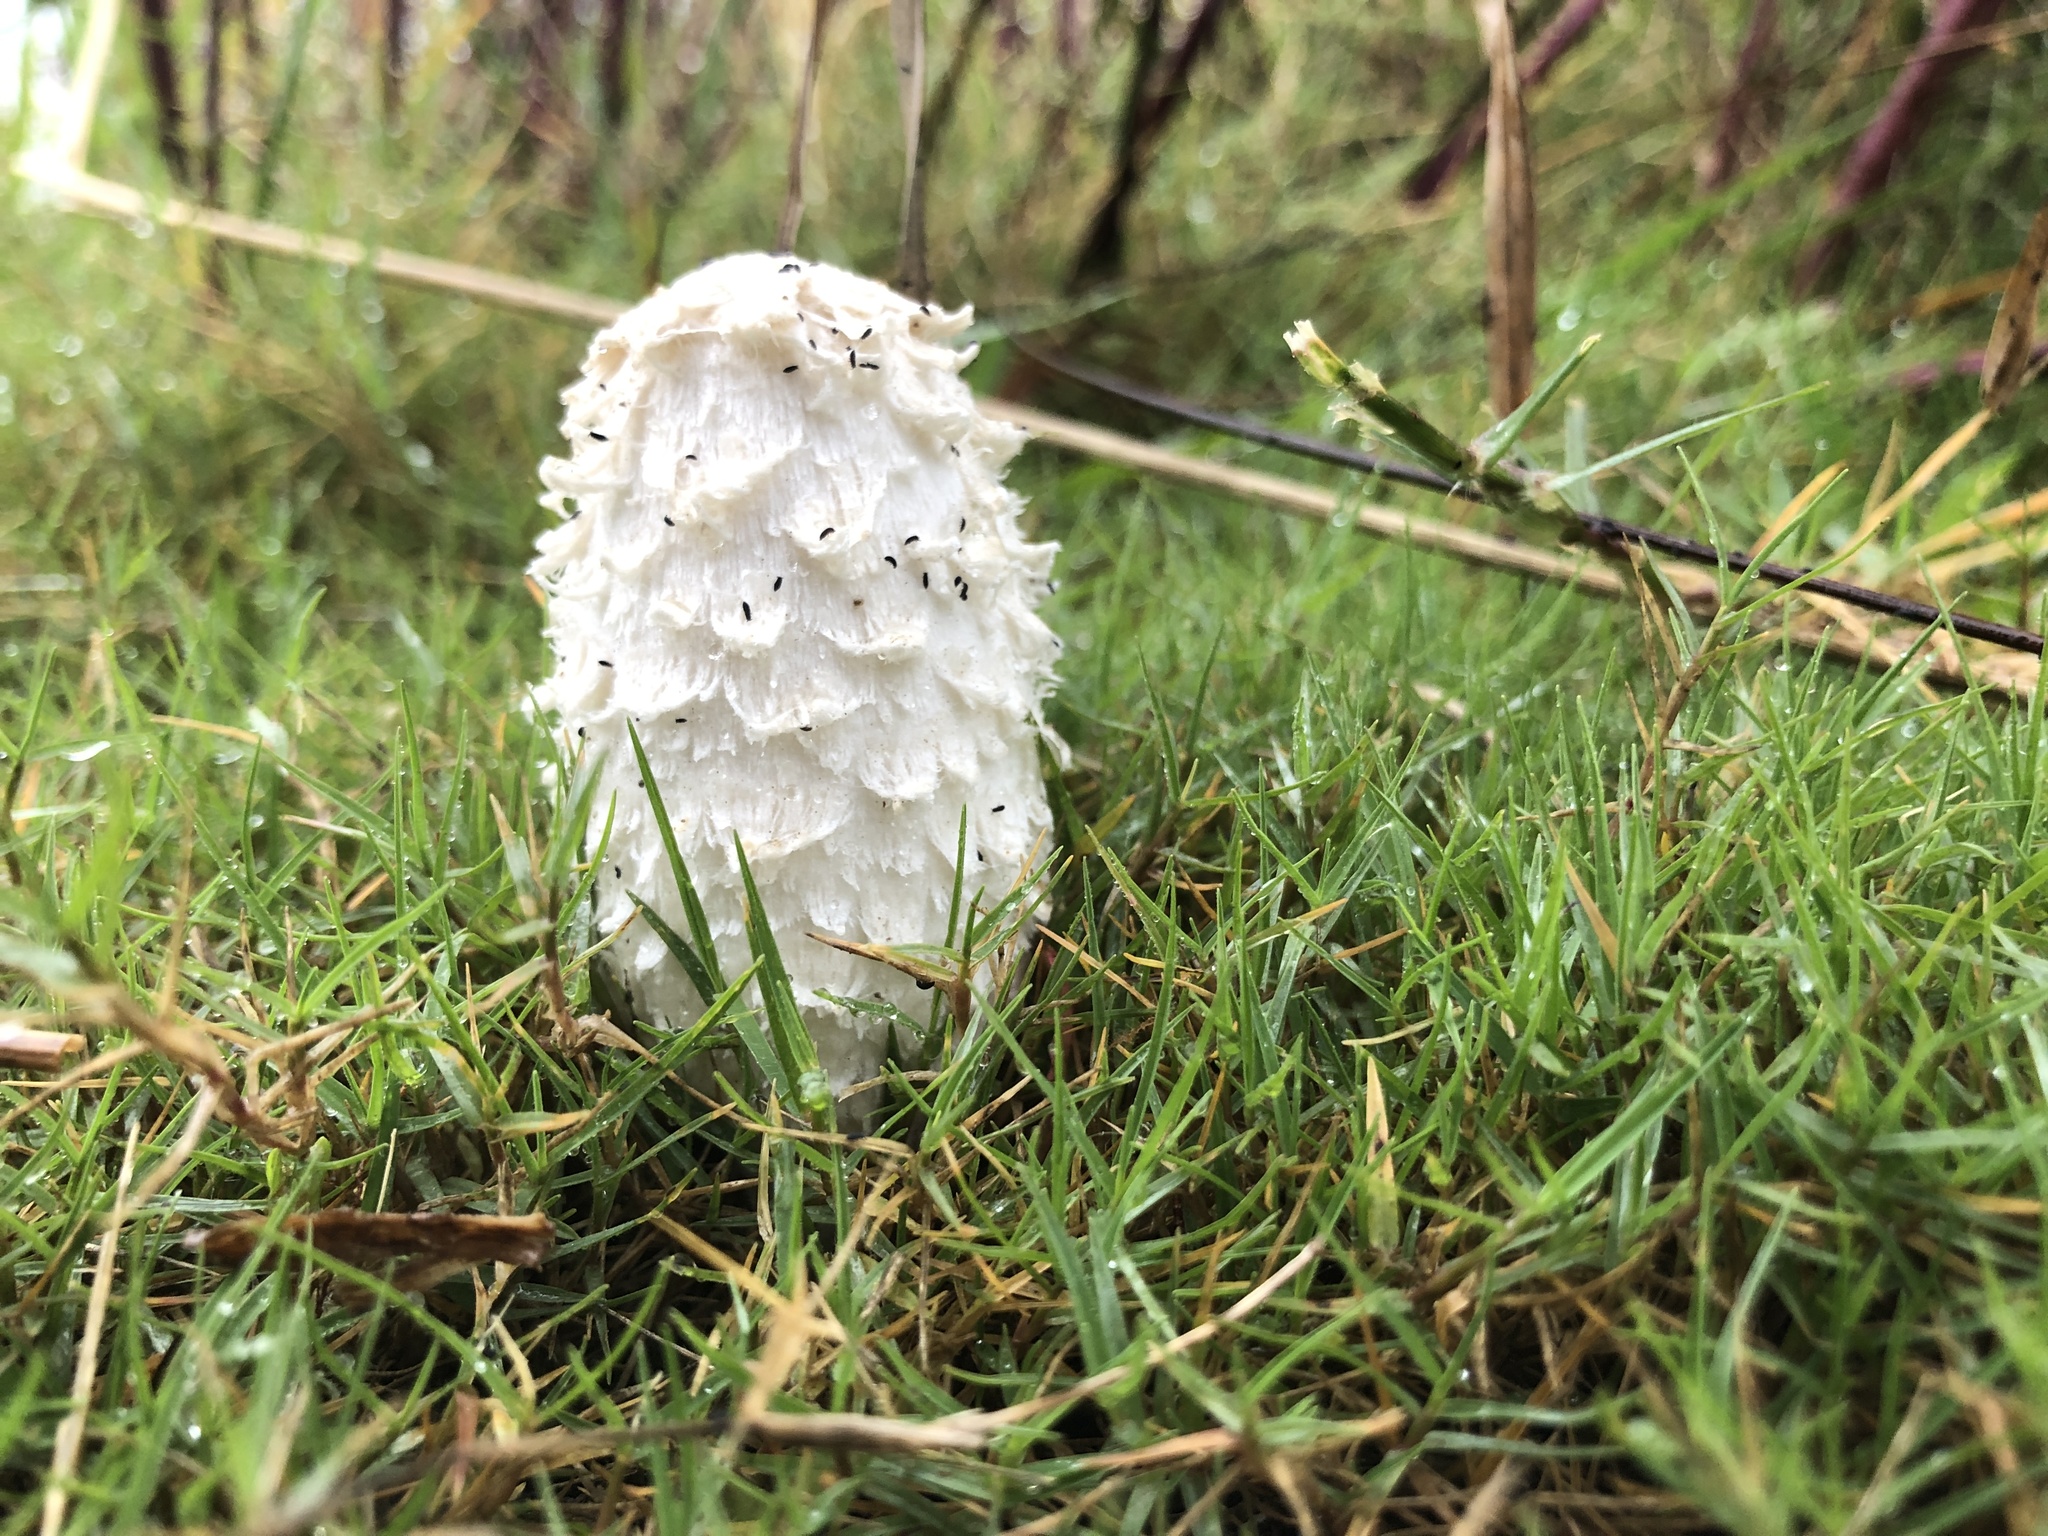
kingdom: Fungi
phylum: Basidiomycota
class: Agaricomycetes
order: Agaricales
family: Agaricaceae
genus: Coprinus
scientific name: Coprinus comatus
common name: Lawyer's wig
